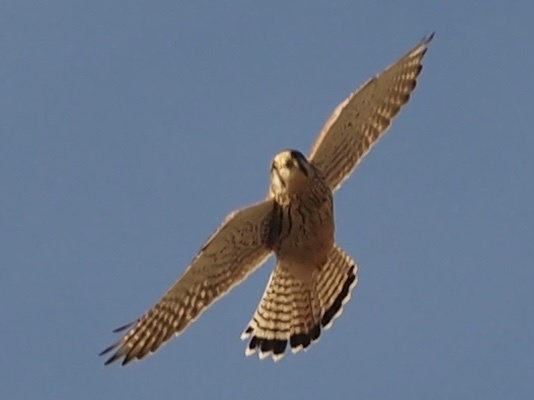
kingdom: Animalia
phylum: Chordata
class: Aves
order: Falconiformes
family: Falconidae
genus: Falco
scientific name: Falco tinnunculus
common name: Common kestrel
